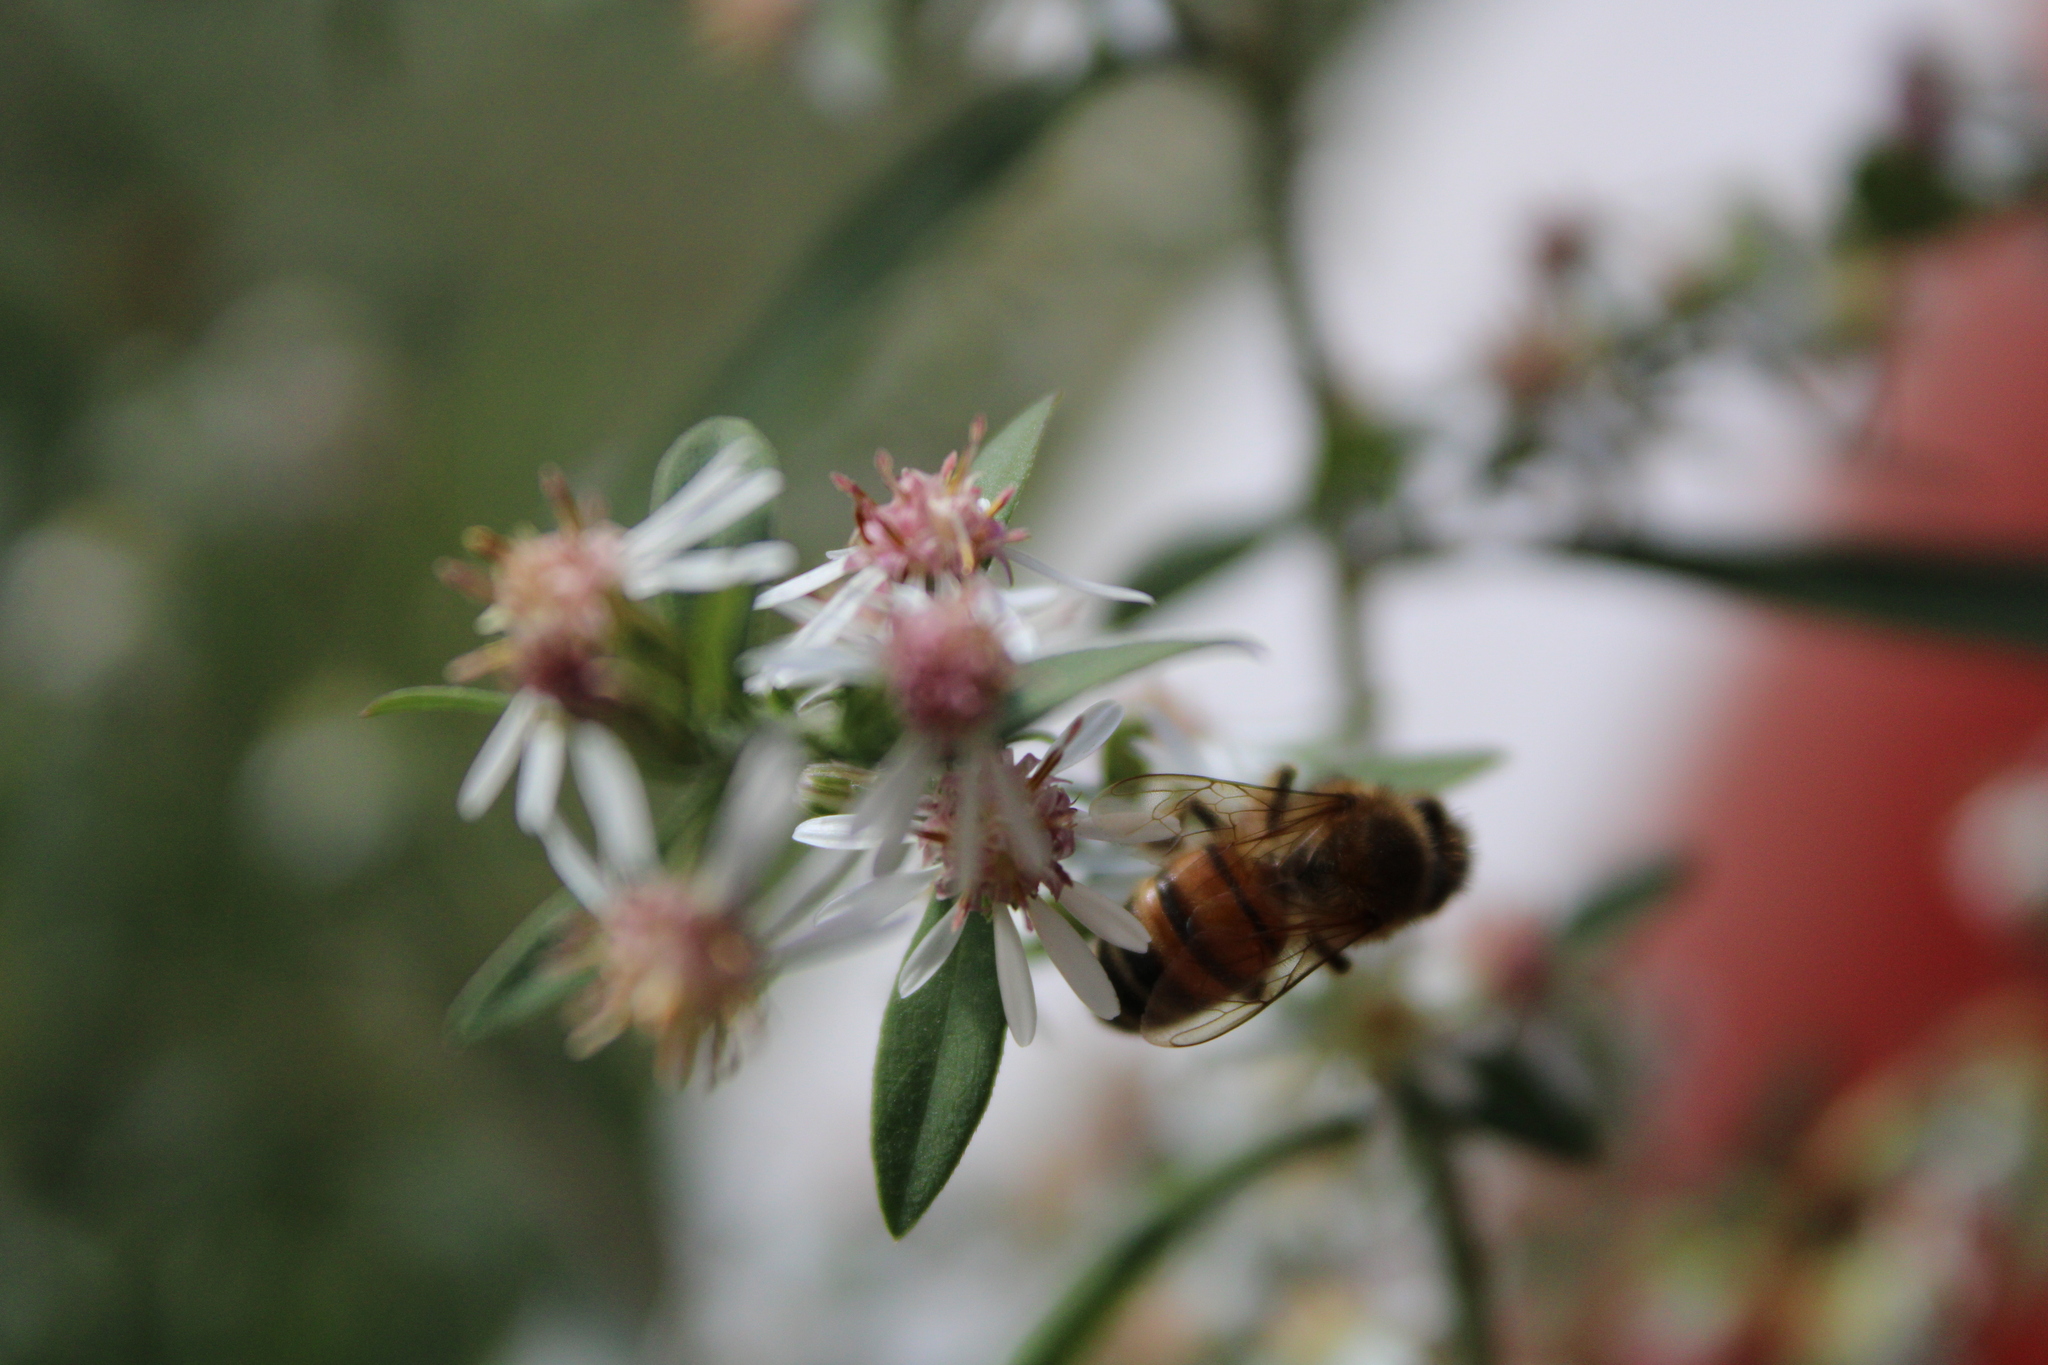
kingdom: Animalia
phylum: Arthropoda
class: Insecta
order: Hymenoptera
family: Apidae
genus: Apis
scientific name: Apis mellifera
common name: Honey bee
